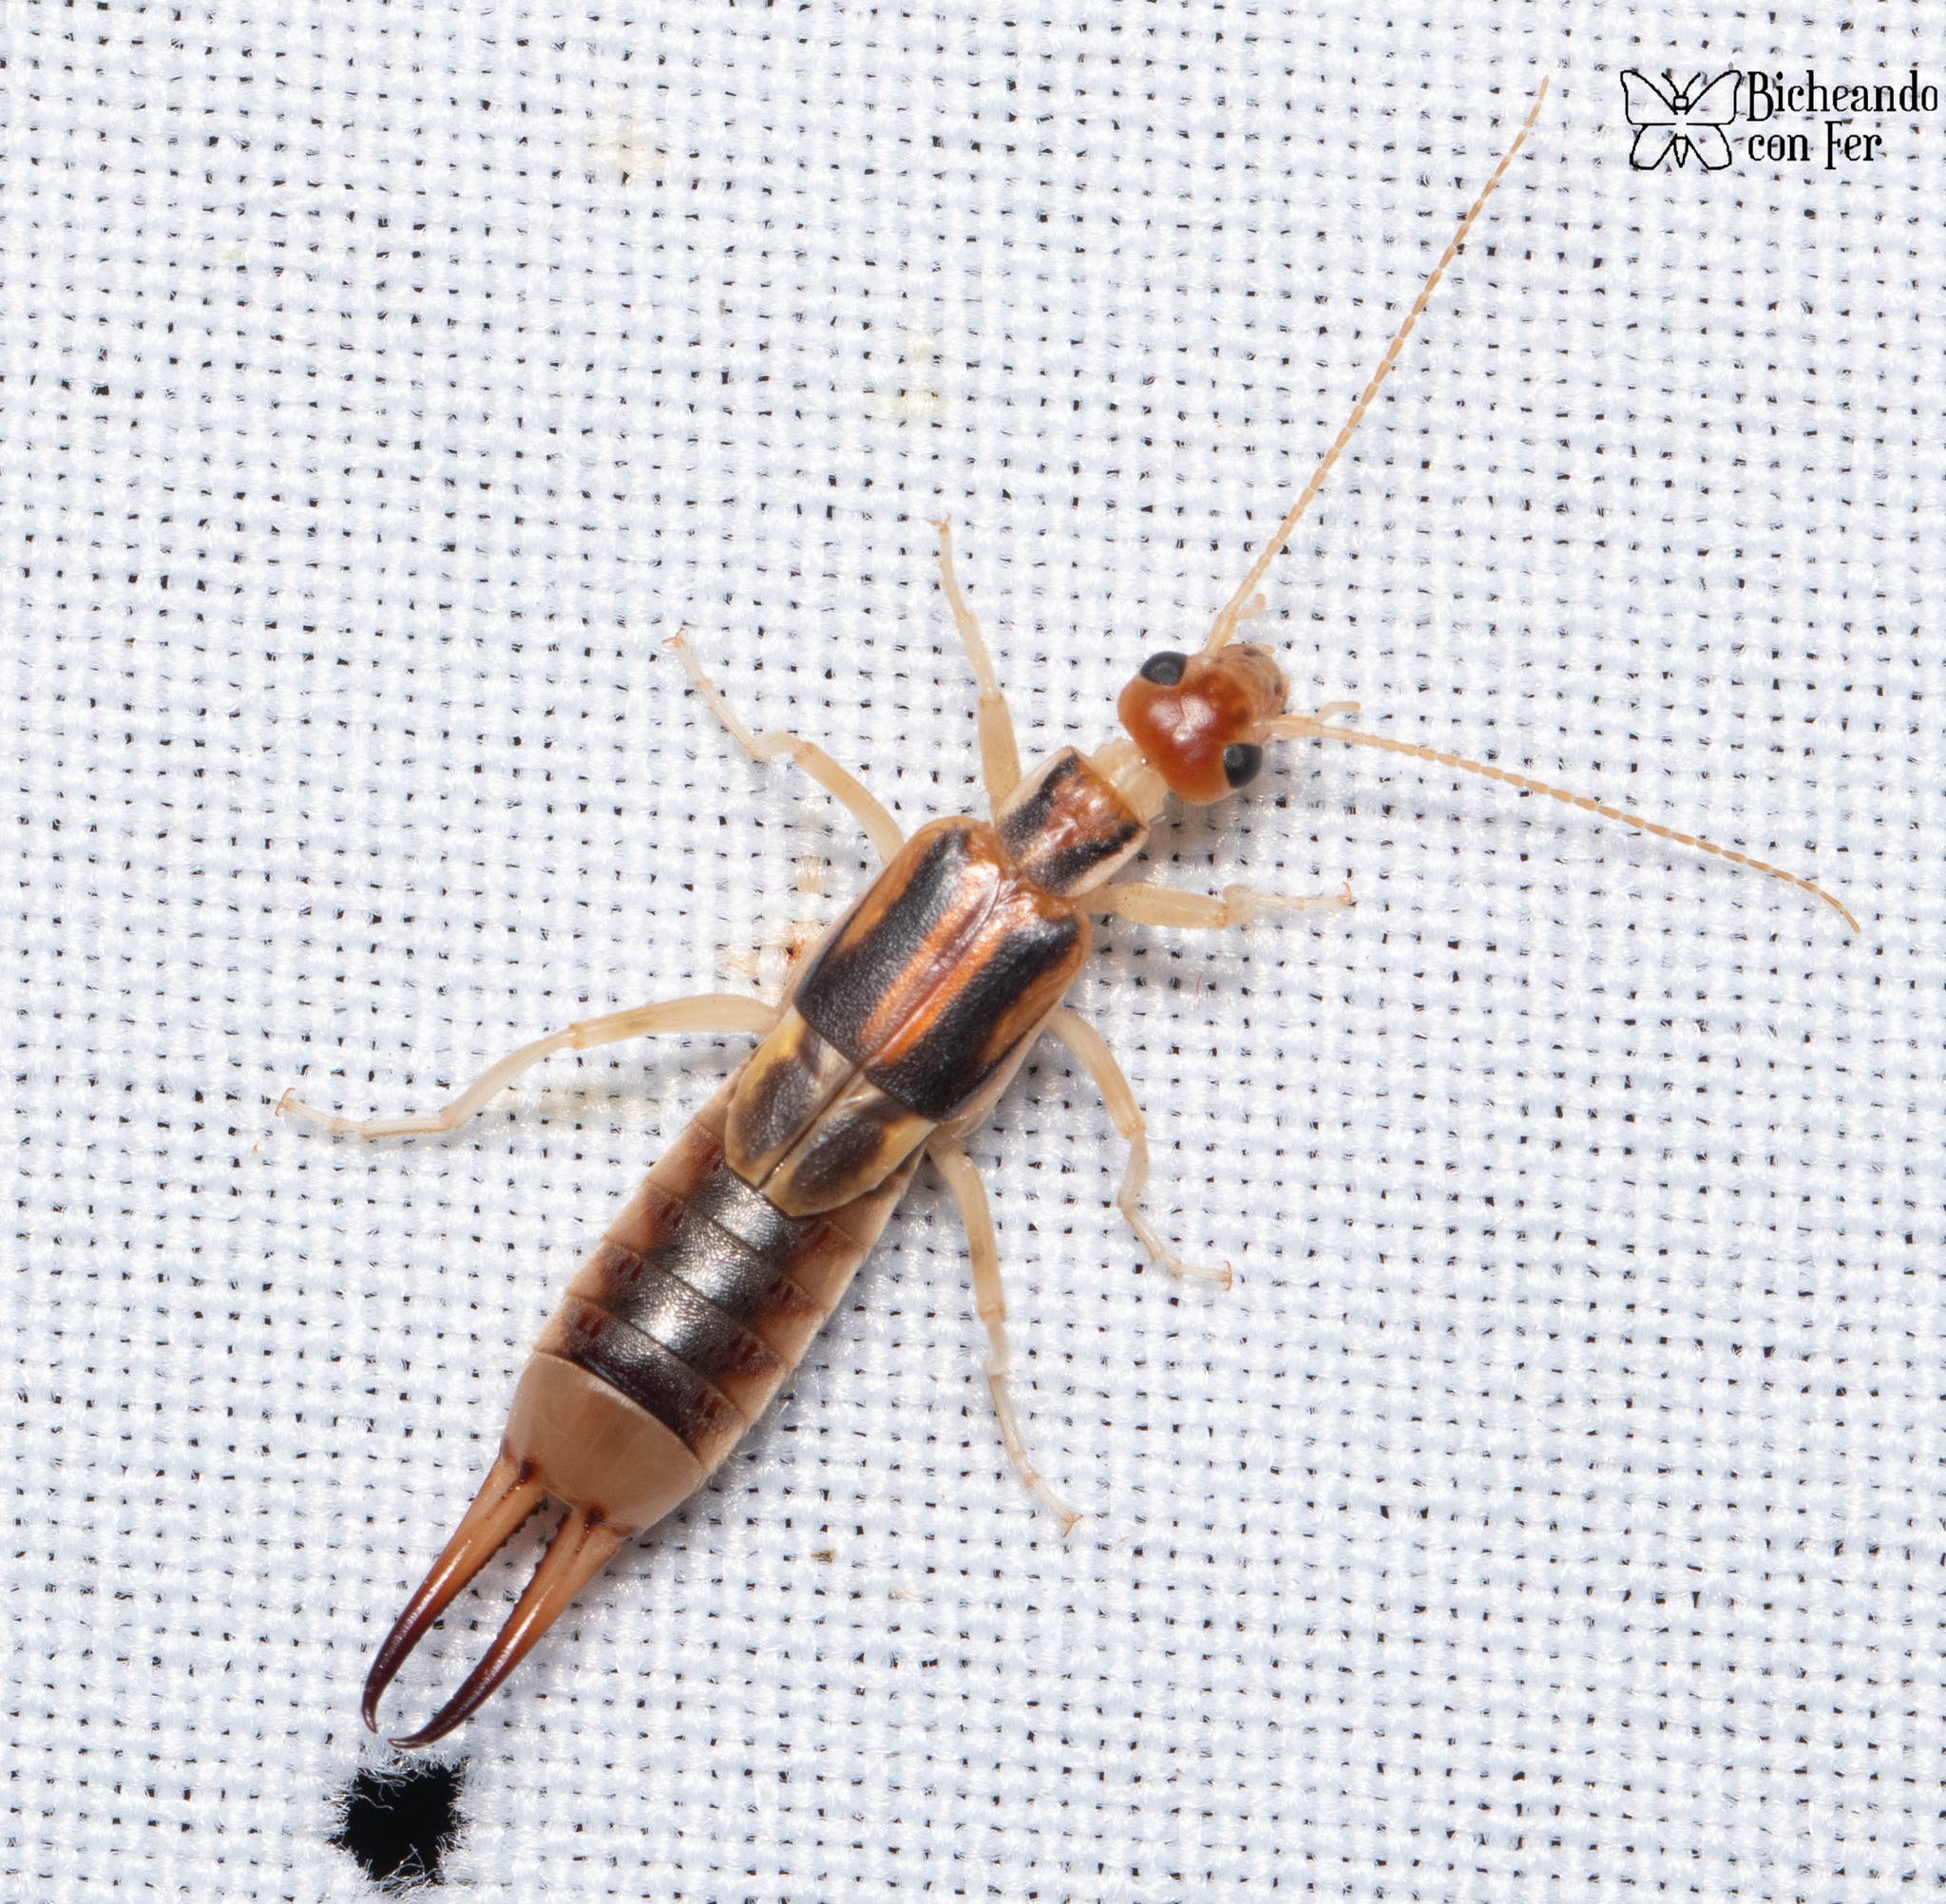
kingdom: Animalia
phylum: Arthropoda
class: Insecta
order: Dermaptera
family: Labiduridae
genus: Labidura
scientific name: Labidura riparia
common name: Striped earwig
